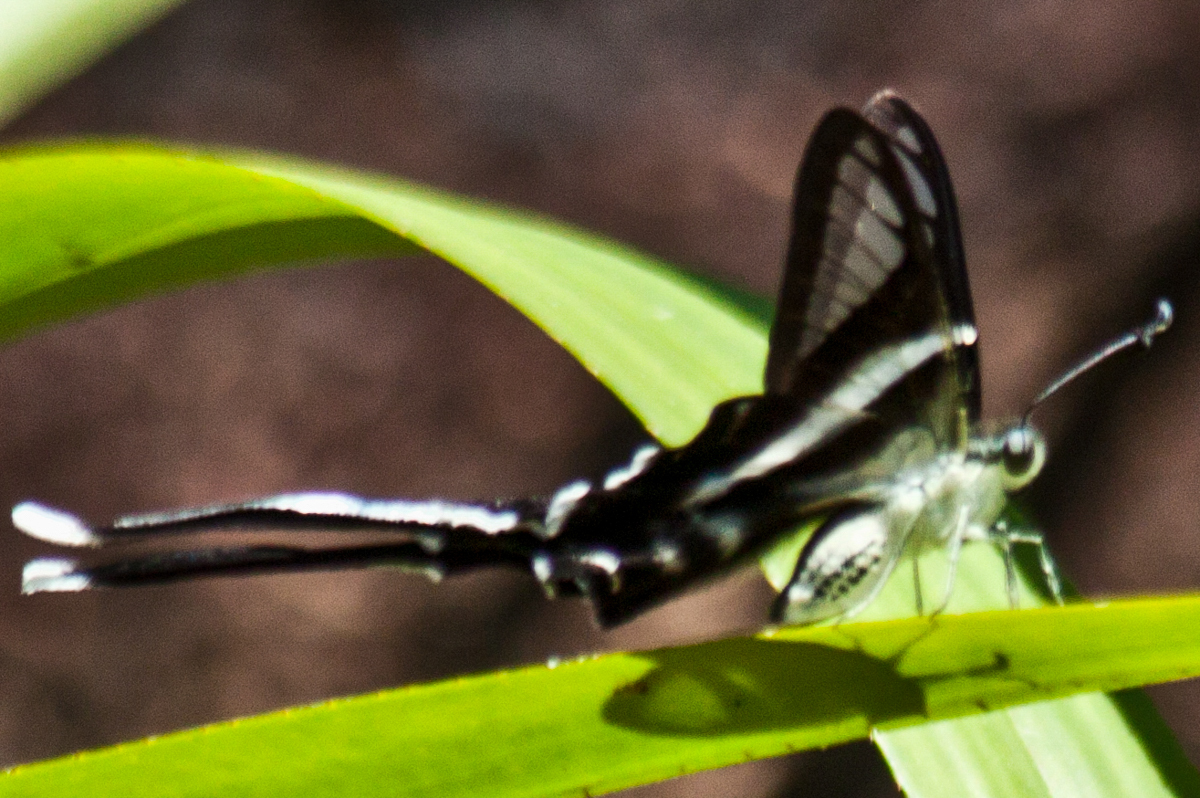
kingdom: Animalia
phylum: Arthropoda
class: Insecta
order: Lepidoptera
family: Papilionidae
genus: Lamproptera
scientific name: Lamproptera curius
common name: White dragontail
